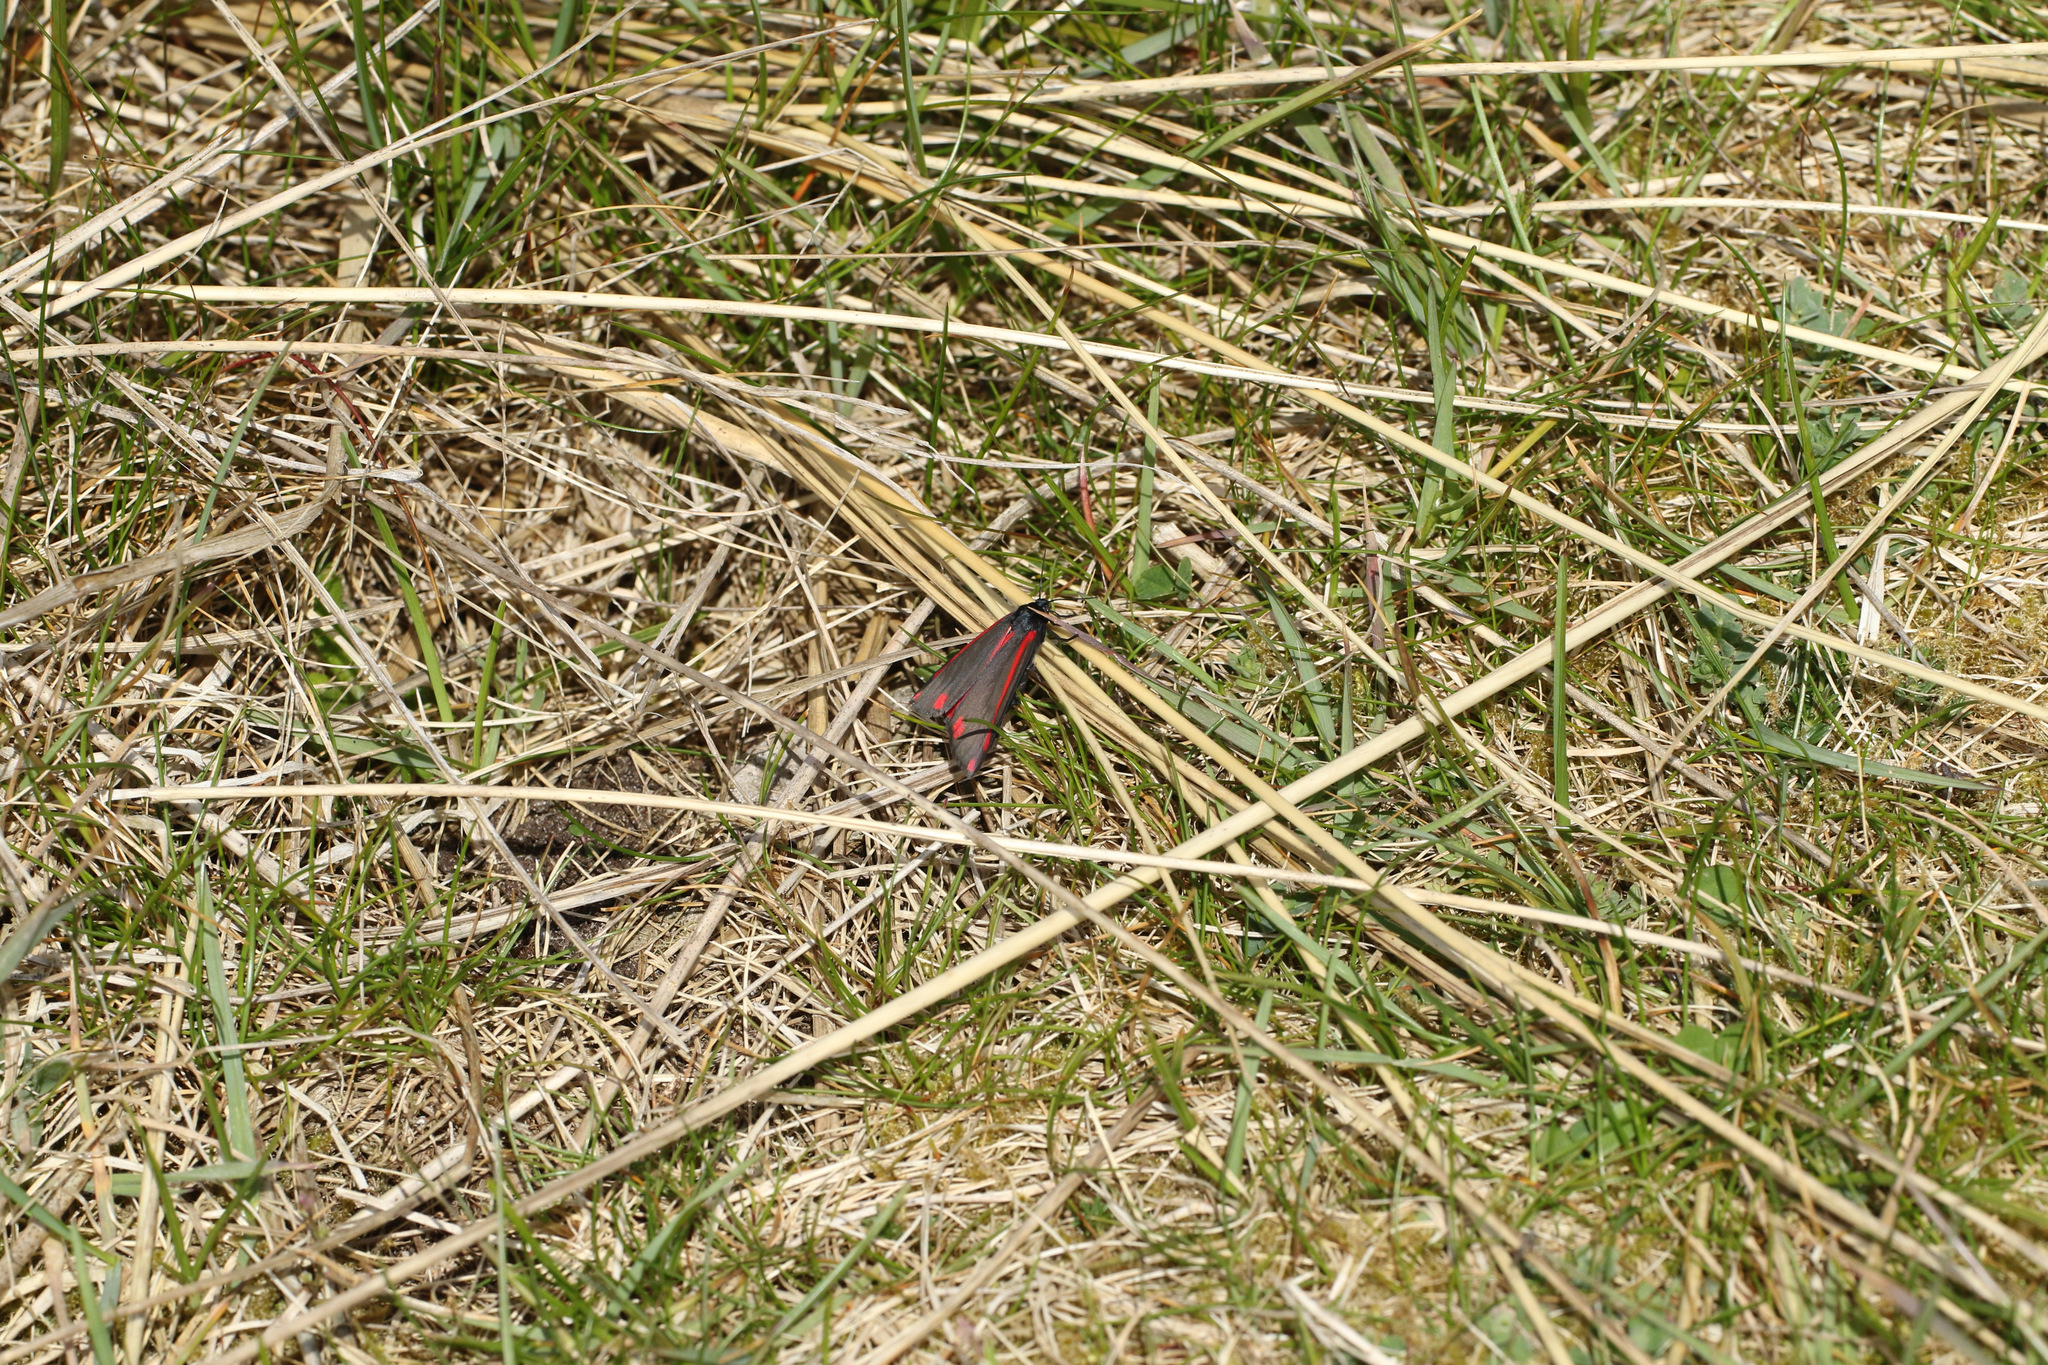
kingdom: Animalia
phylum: Arthropoda
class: Insecta
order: Lepidoptera
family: Erebidae
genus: Tyria
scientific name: Tyria jacobaeae
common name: Cinnabar
